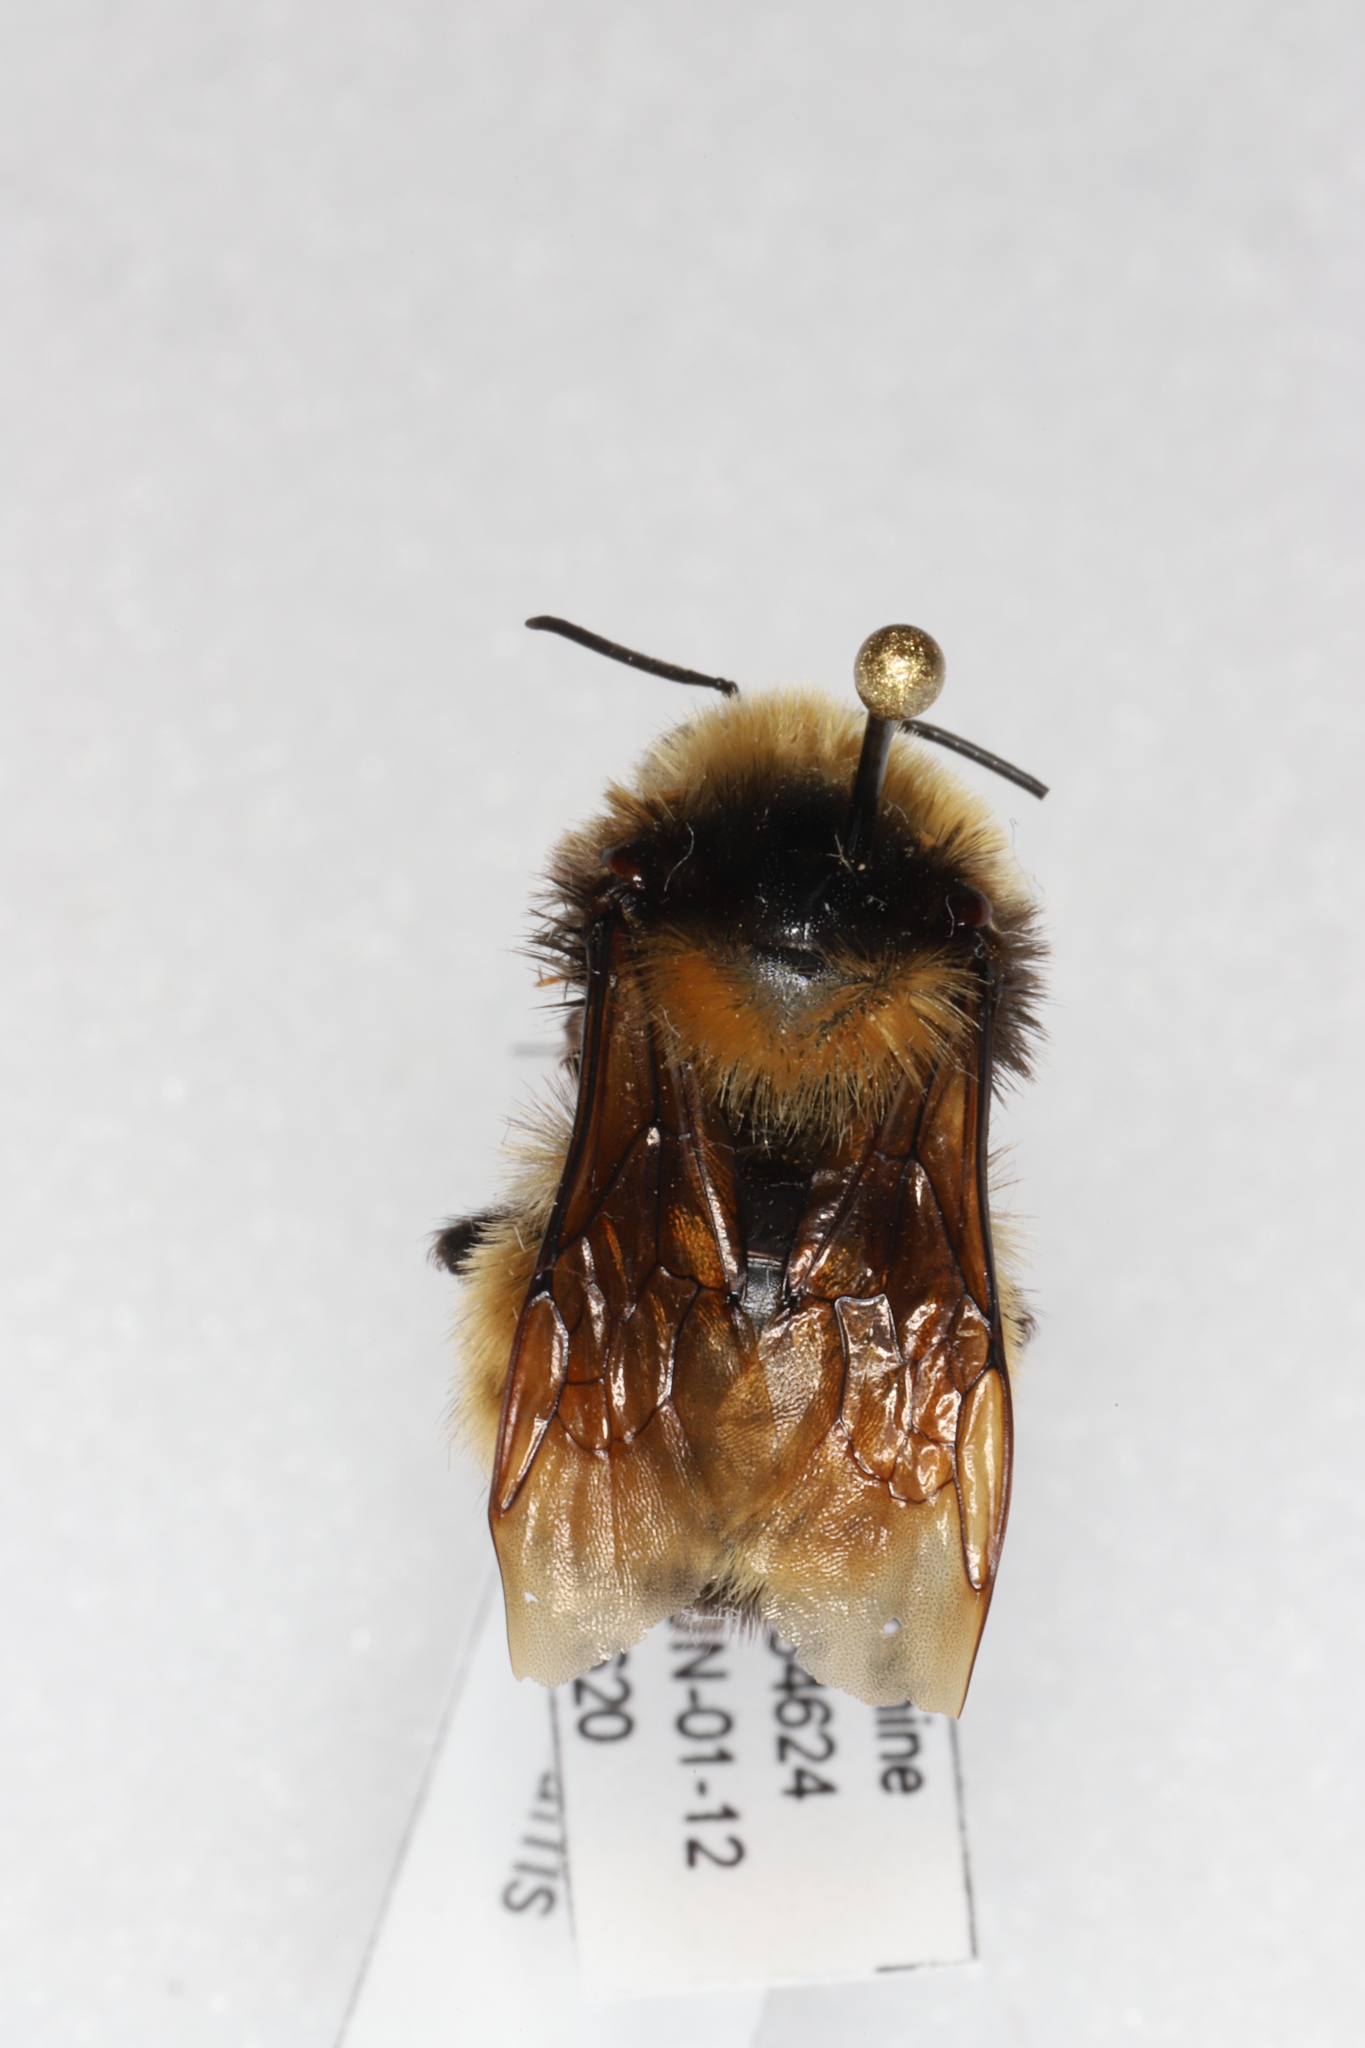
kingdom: Animalia
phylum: Arthropoda
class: Insecta
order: Hymenoptera
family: Apidae
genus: Bombus
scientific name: Bombus borealis
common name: Northern amber bumble bee
